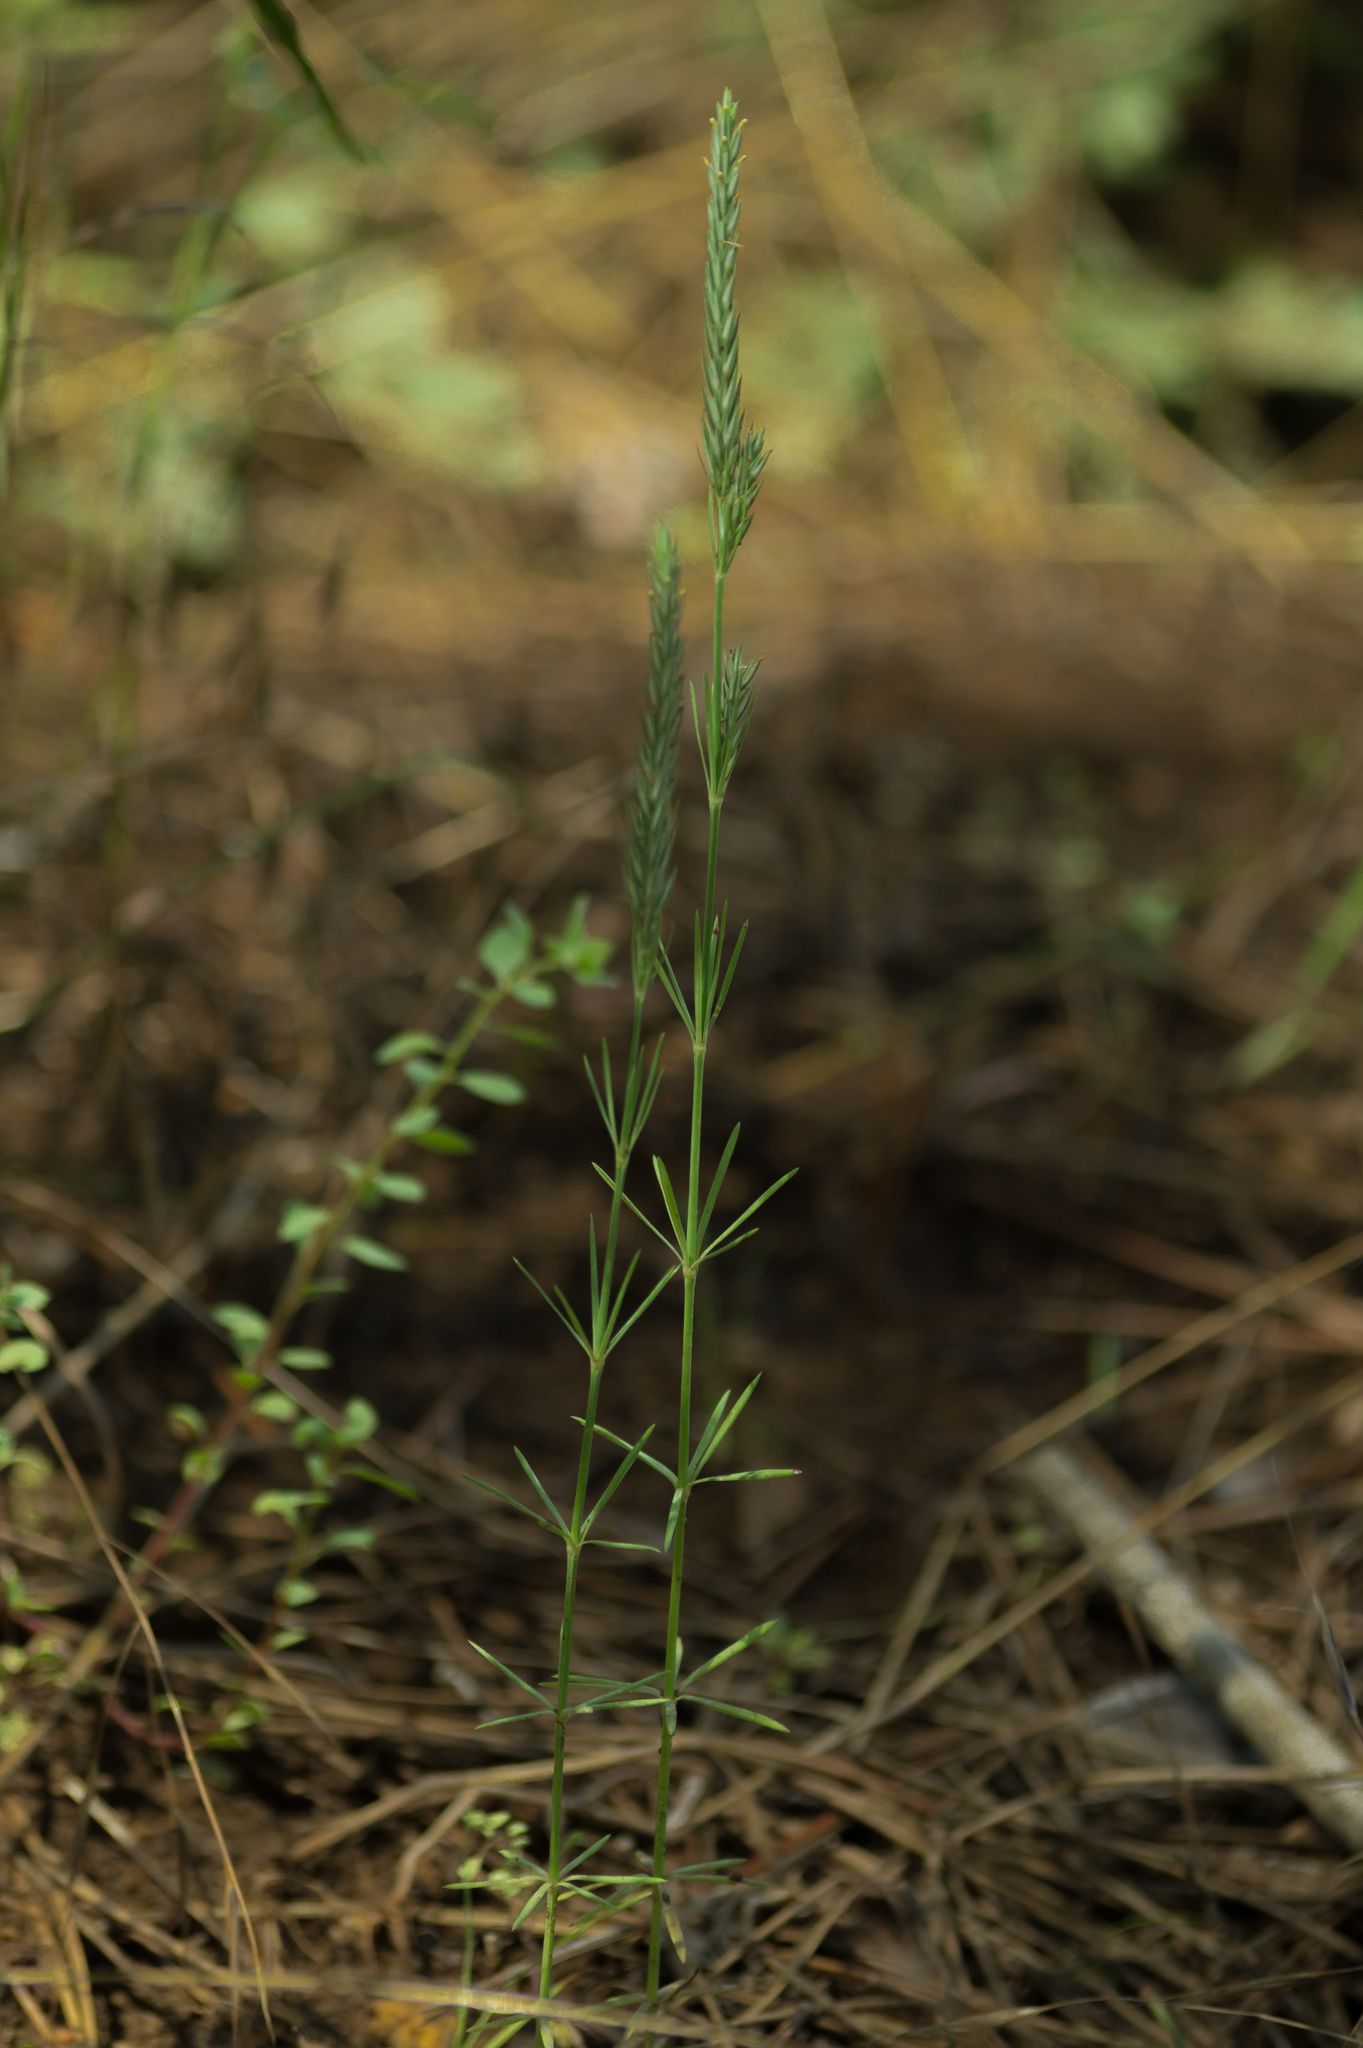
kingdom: Plantae
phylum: Tracheophyta
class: Magnoliopsida
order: Gentianales
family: Rubiaceae
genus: Crucianella
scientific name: Crucianella angustifolia
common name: Narrowleaf crucianella
